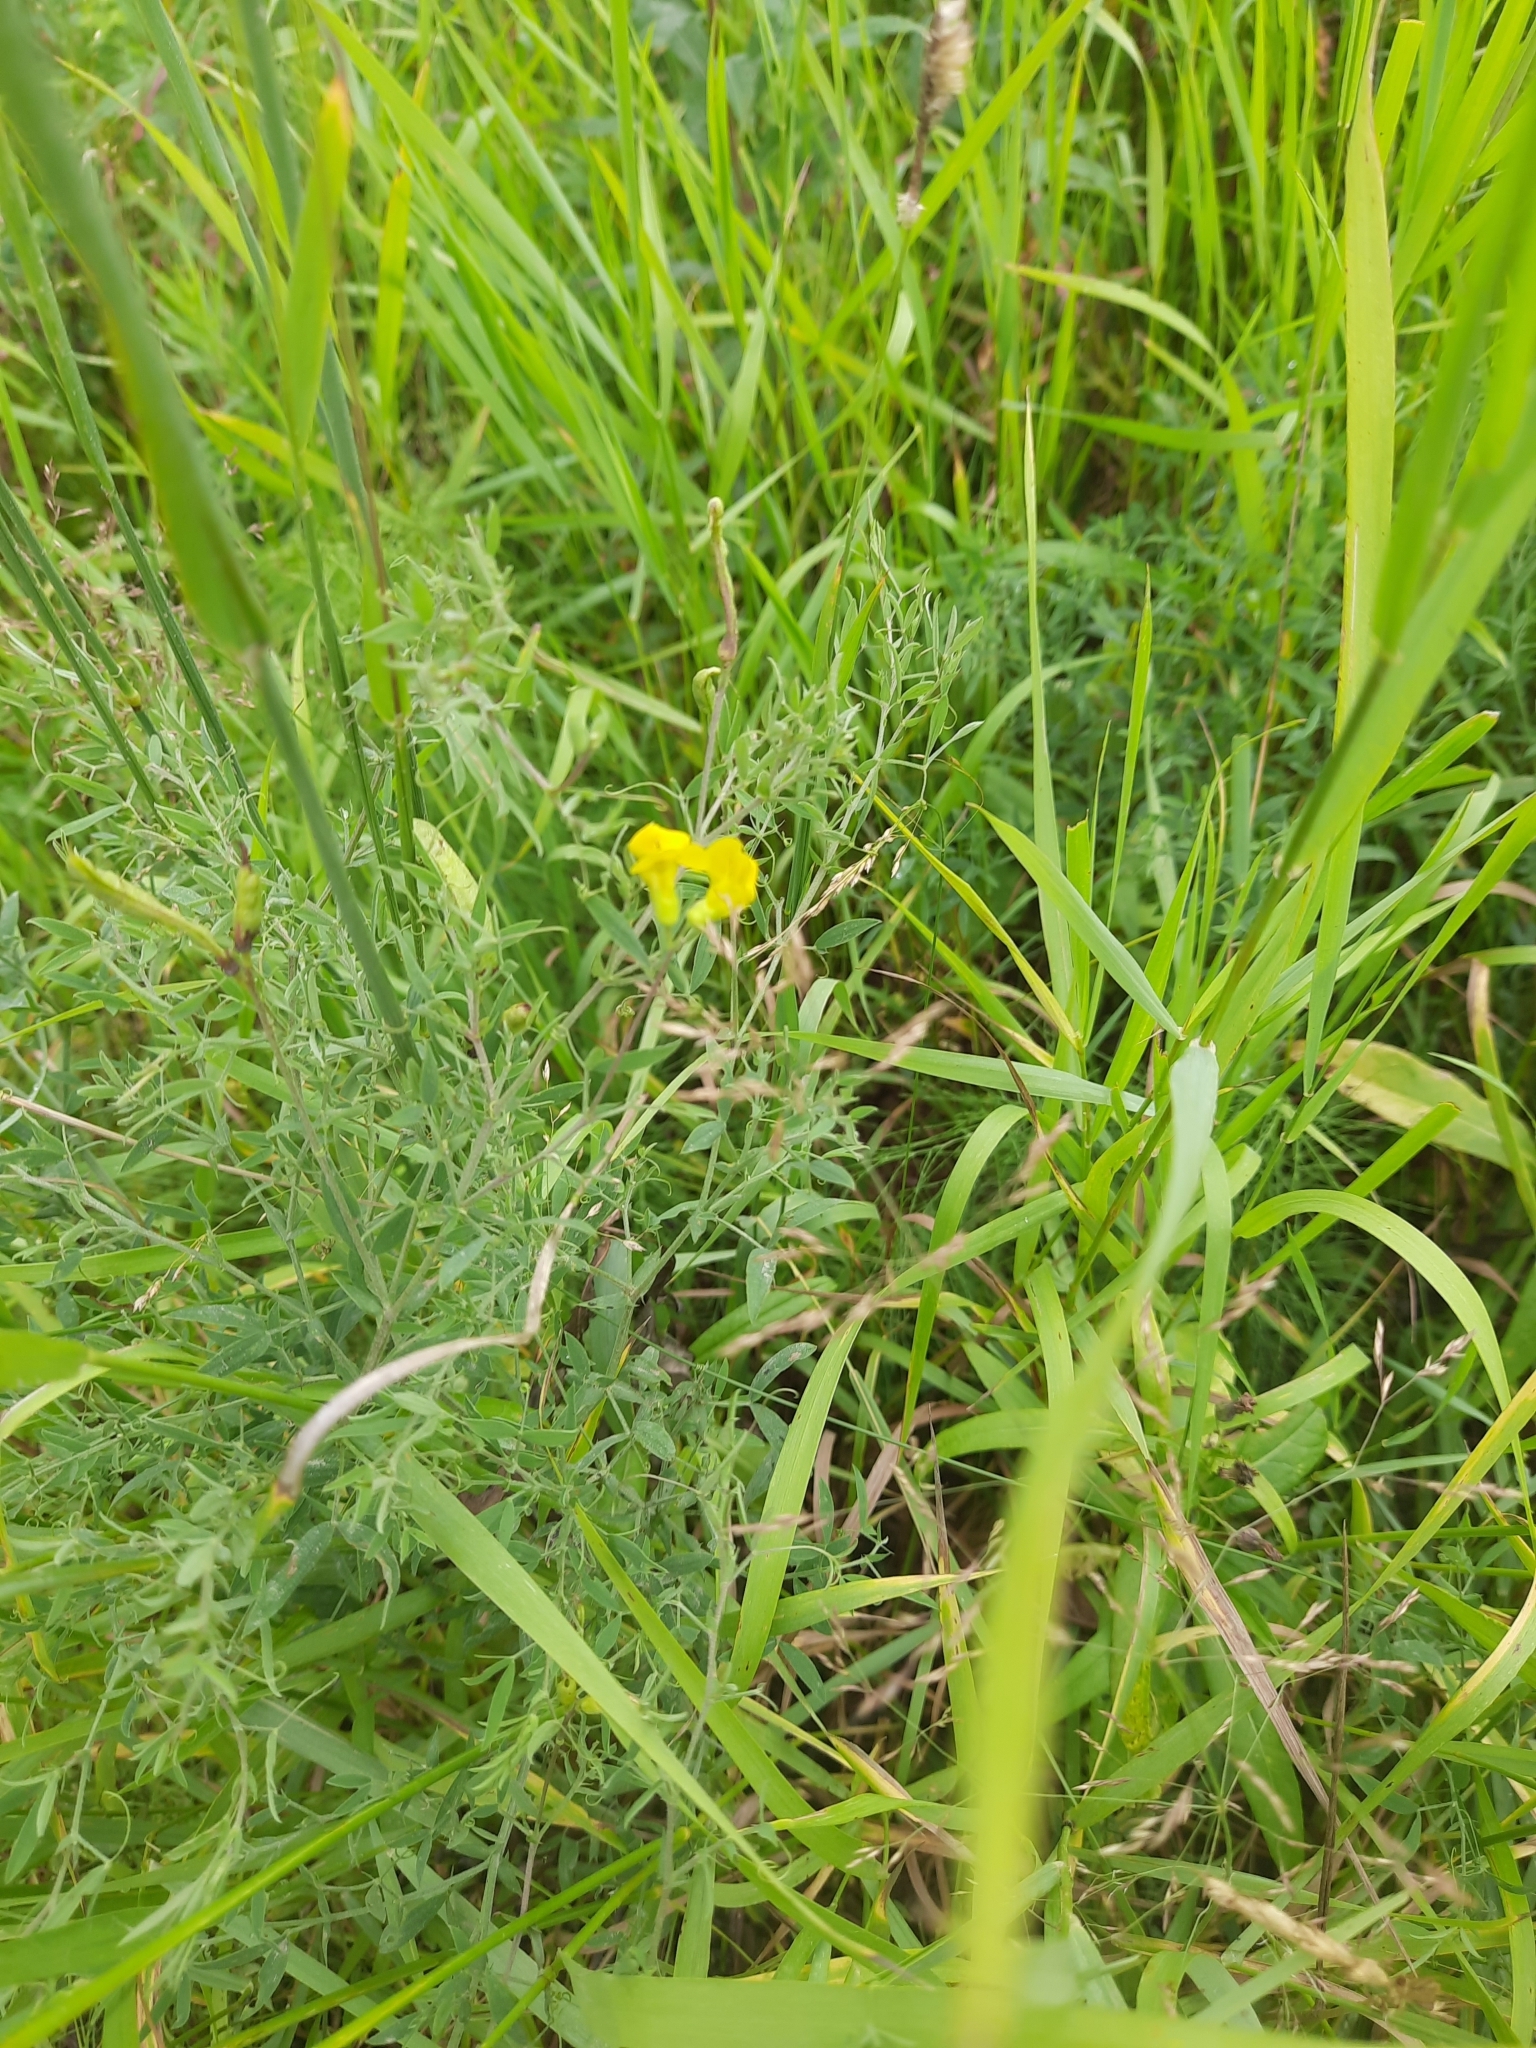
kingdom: Plantae
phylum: Tracheophyta
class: Magnoliopsida
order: Fabales
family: Fabaceae
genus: Lathyrus
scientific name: Lathyrus pratensis
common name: Meadow vetchling
